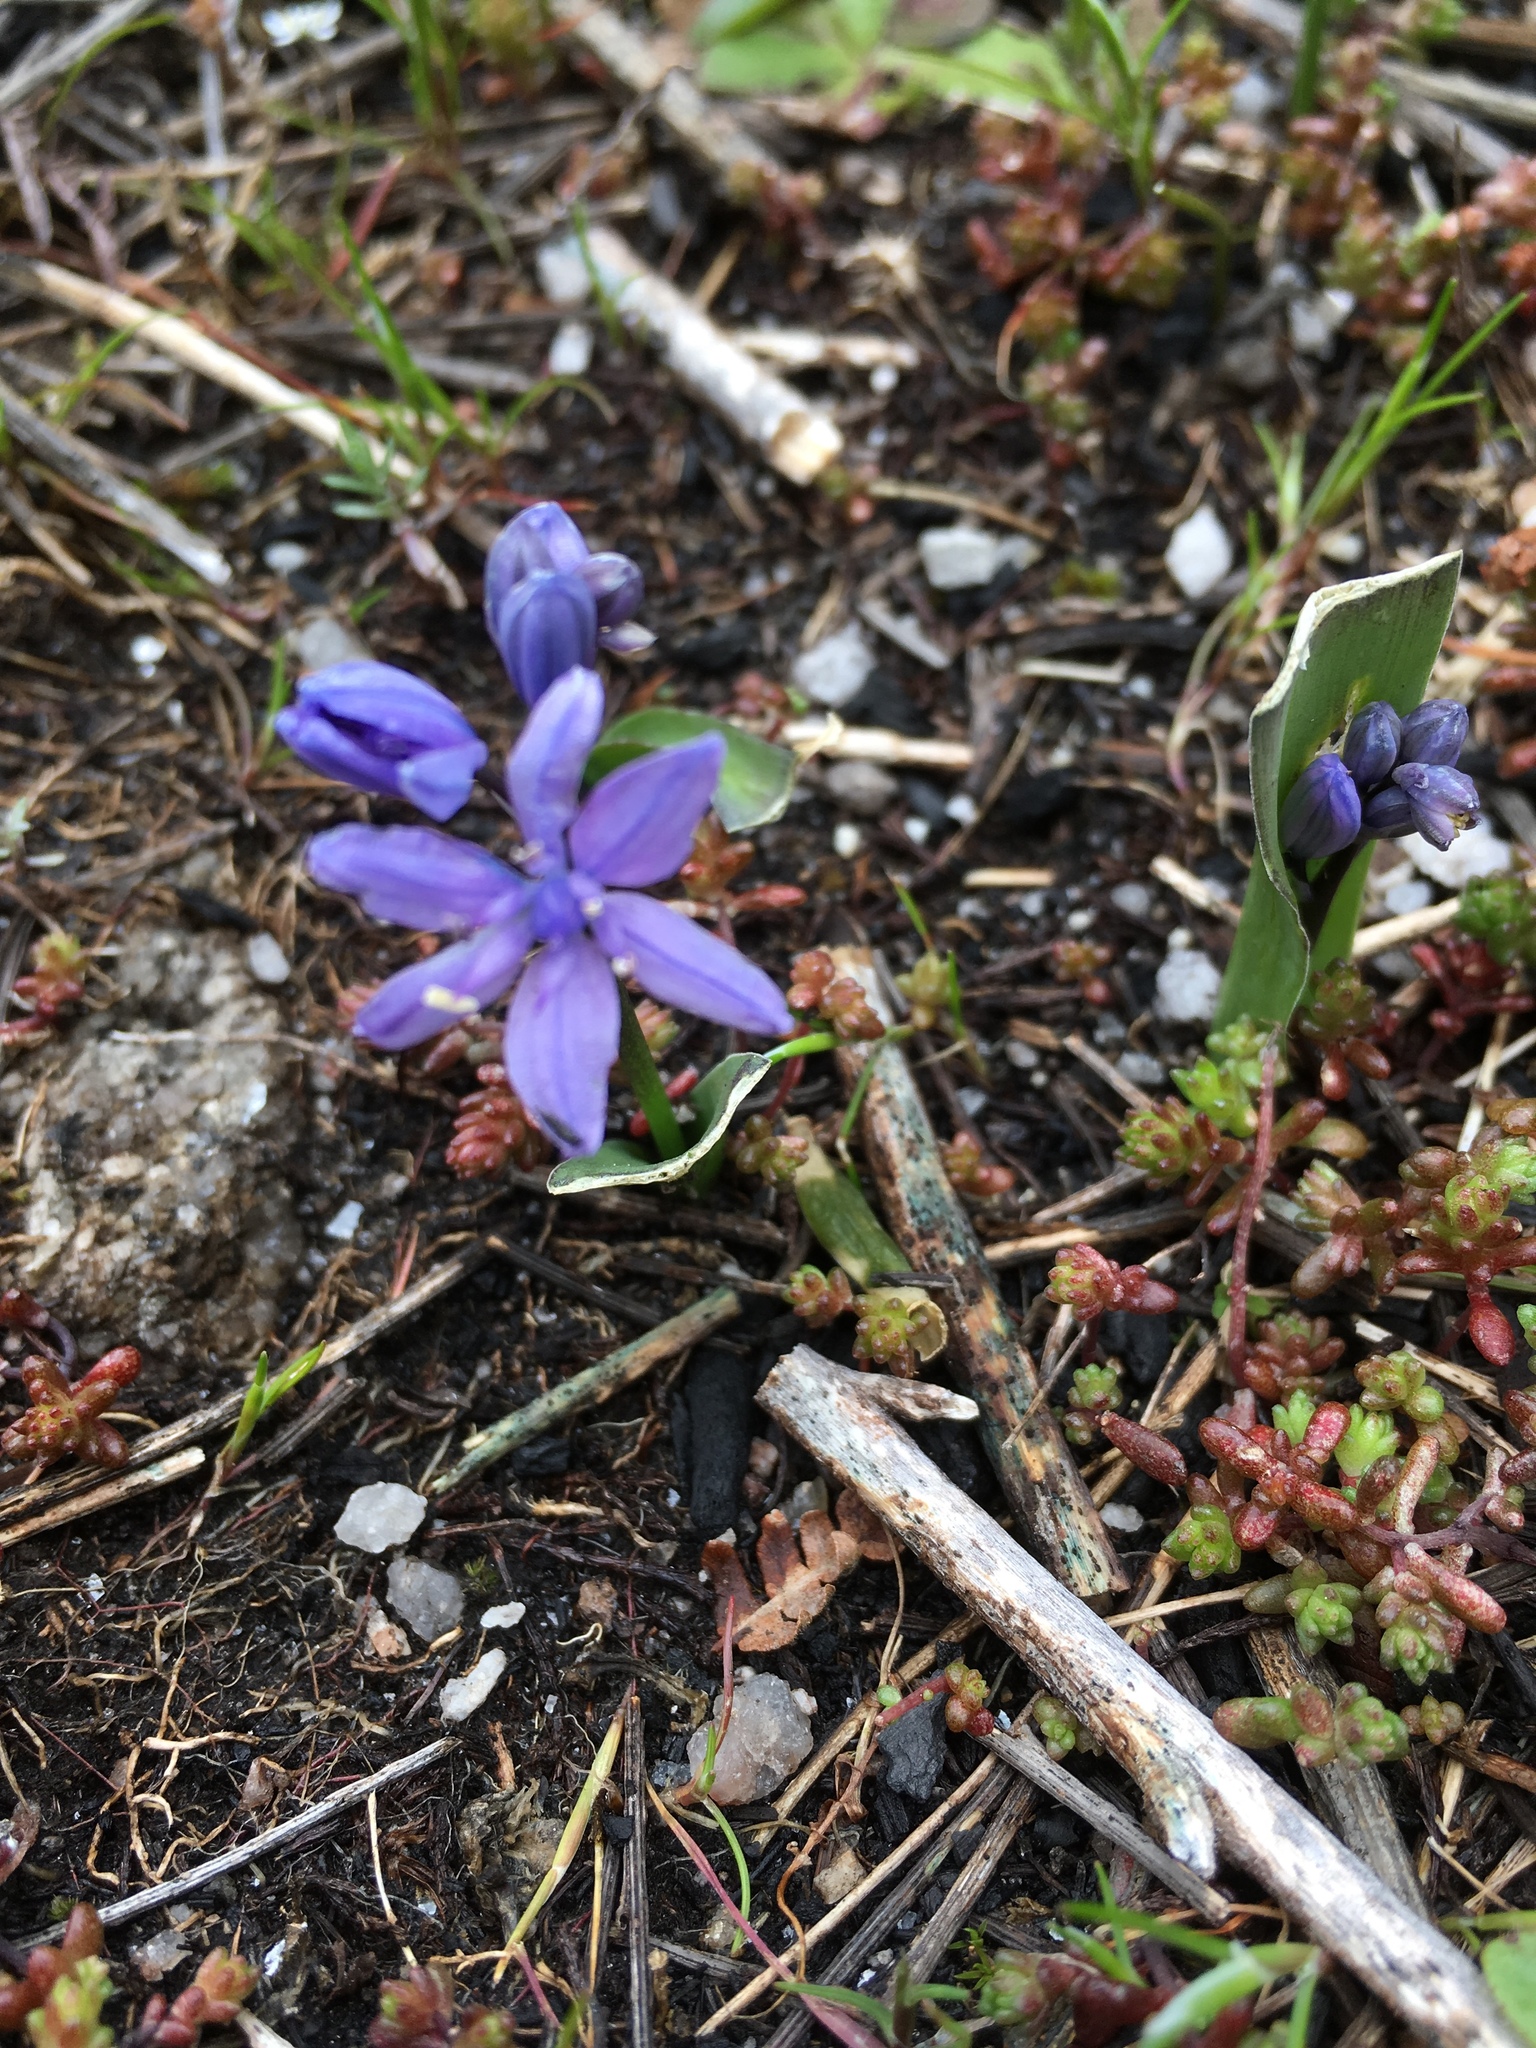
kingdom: Plantae
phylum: Tracheophyta
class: Liliopsida
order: Asparagales
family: Asparagaceae
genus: Scilla
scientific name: Scilla monophyllos
